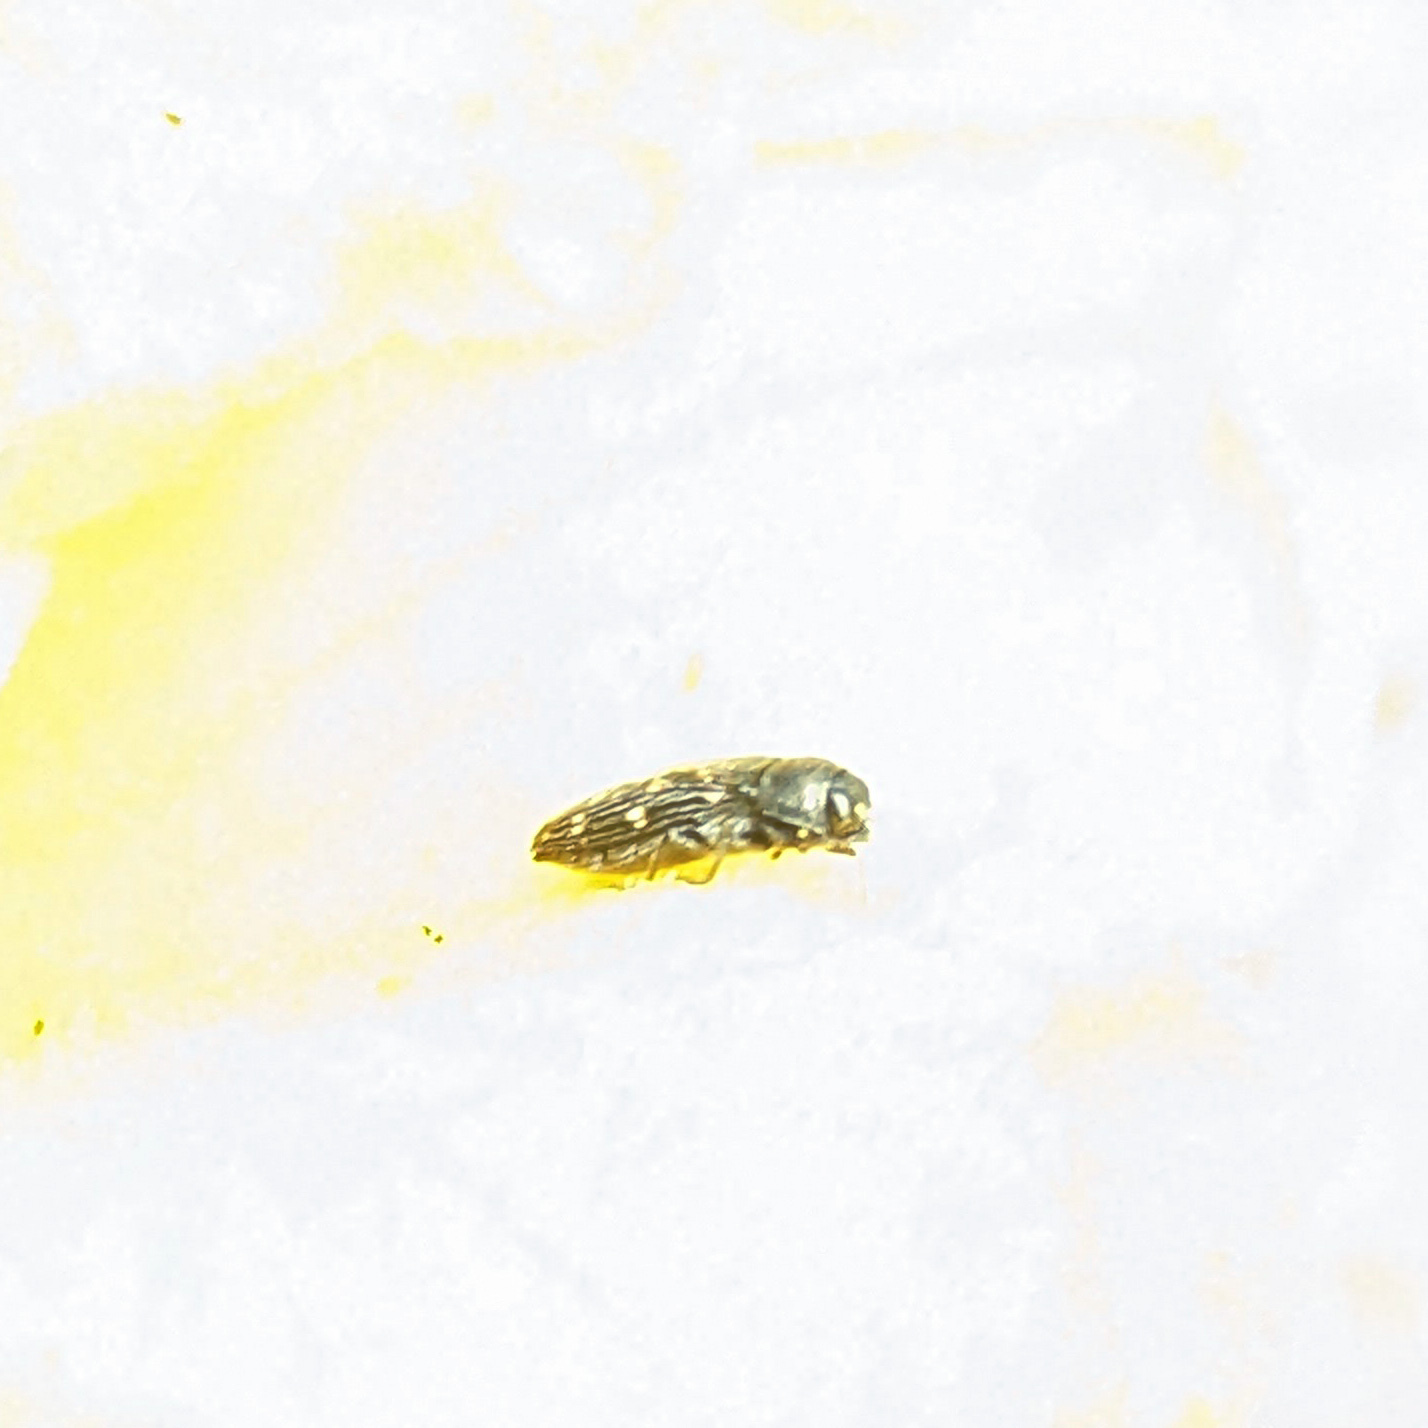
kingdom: Animalia
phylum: Arthropoda
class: Insecta
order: Coleoptera
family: Buprestidae
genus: Acmaeodera
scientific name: Acmaeodera tubulus
